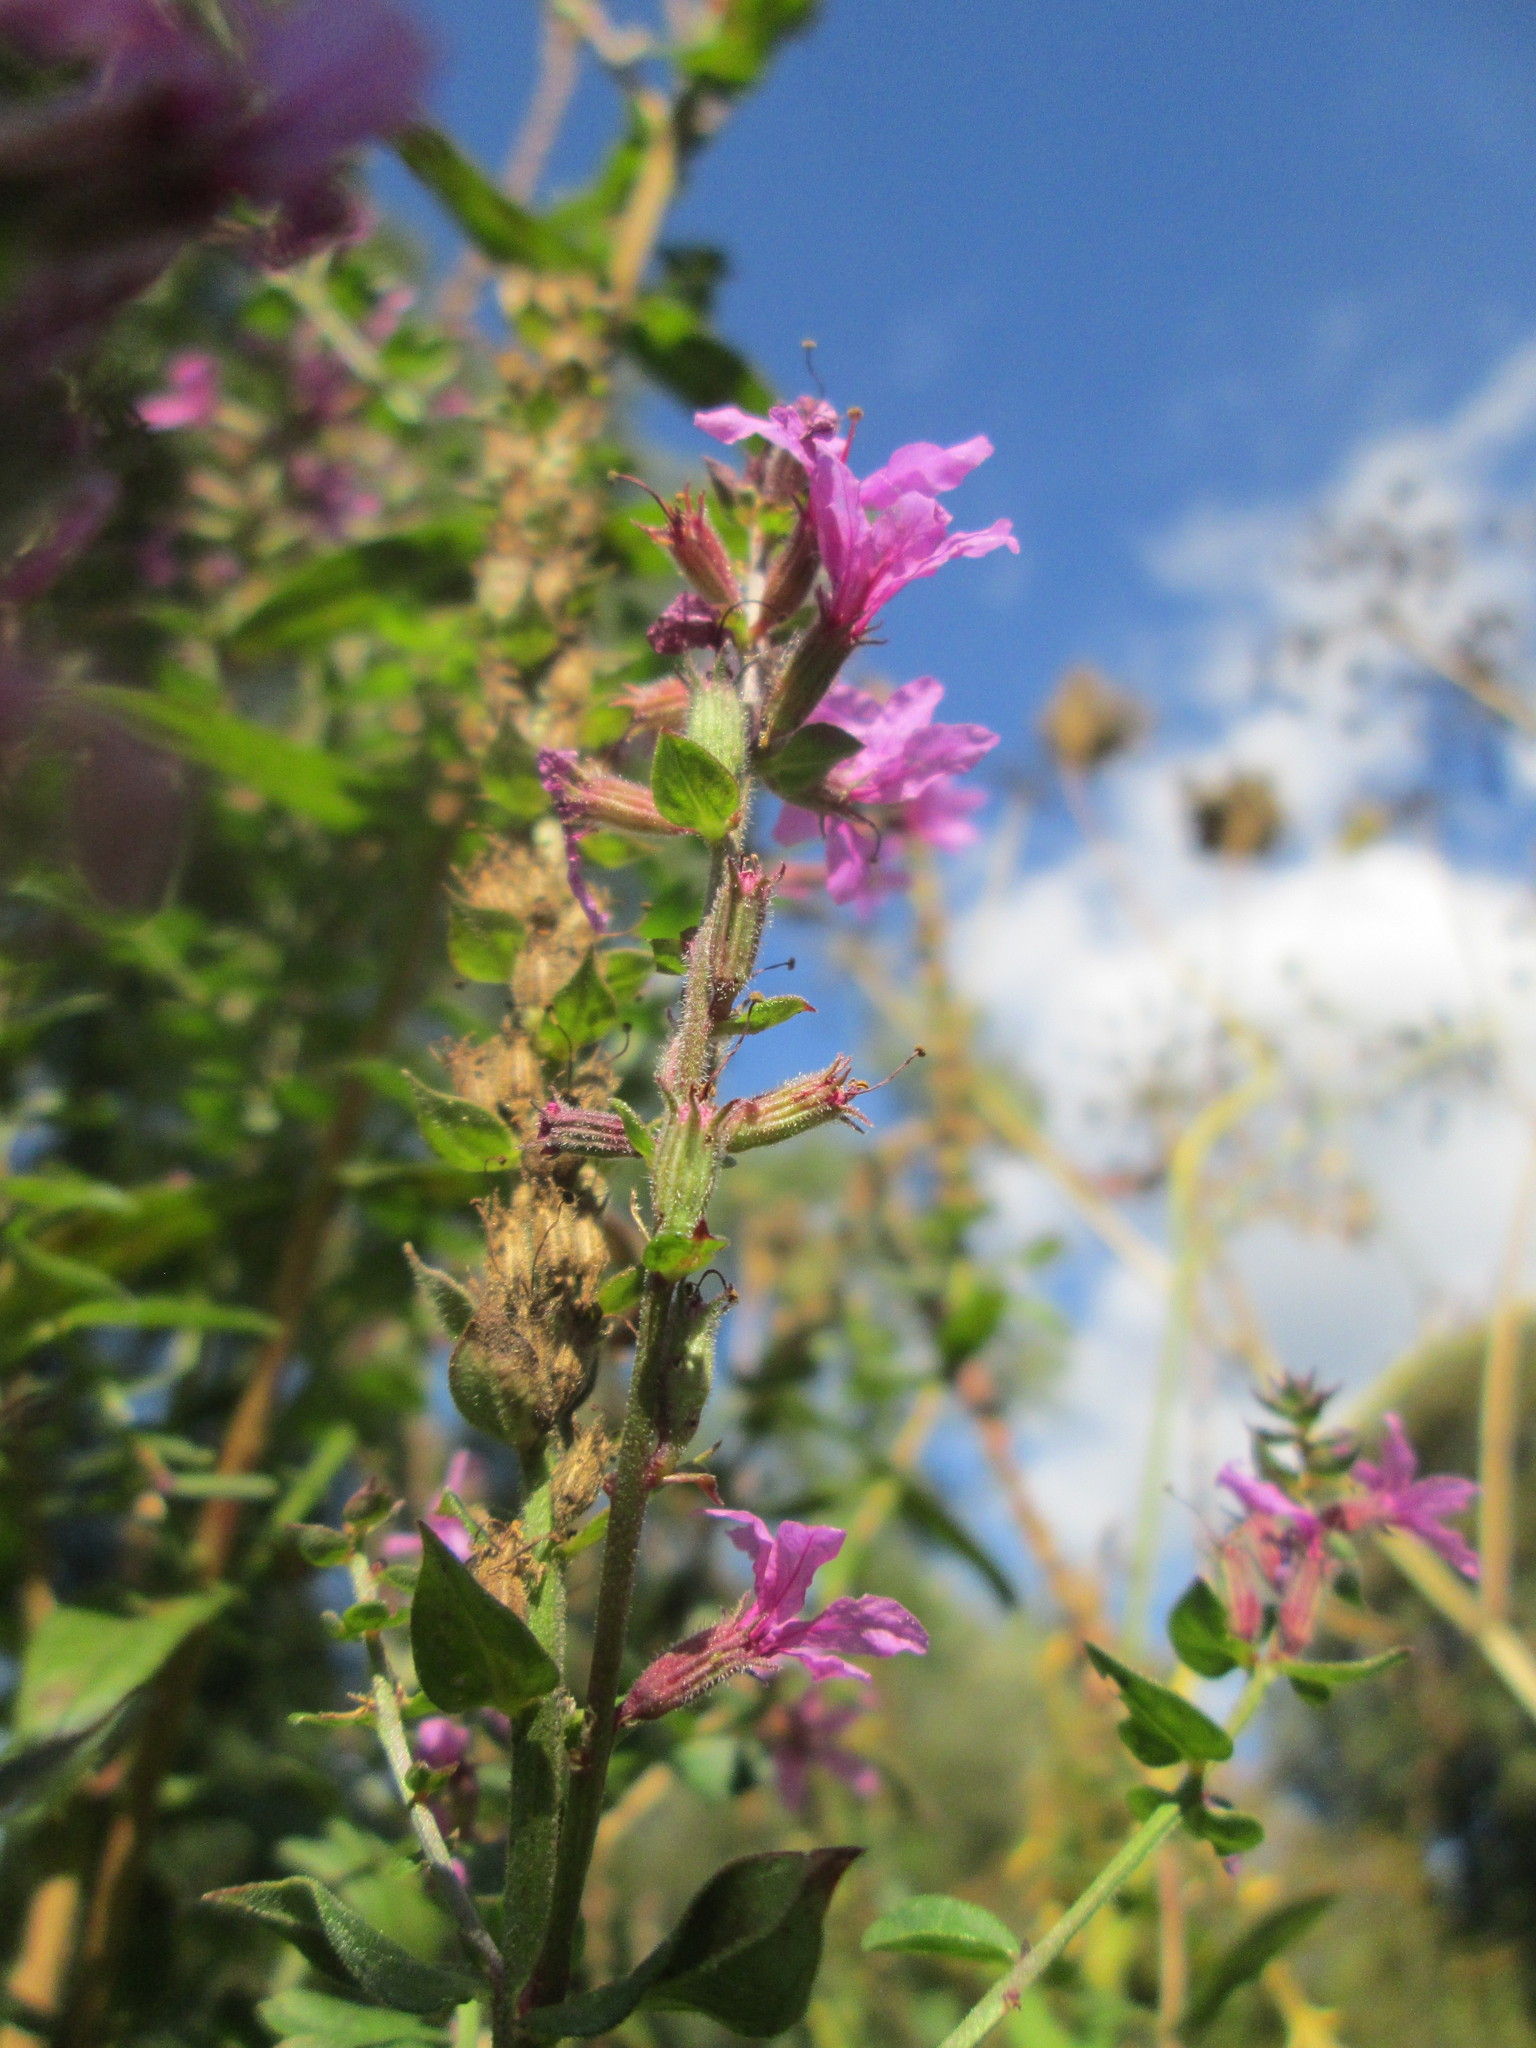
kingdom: Plantae
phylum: Tracheophyta
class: Magnoliopsida
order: Myrtales
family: Lythraceae
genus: Lythrum
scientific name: Lythrum salicaria
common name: Purple loosestrife
